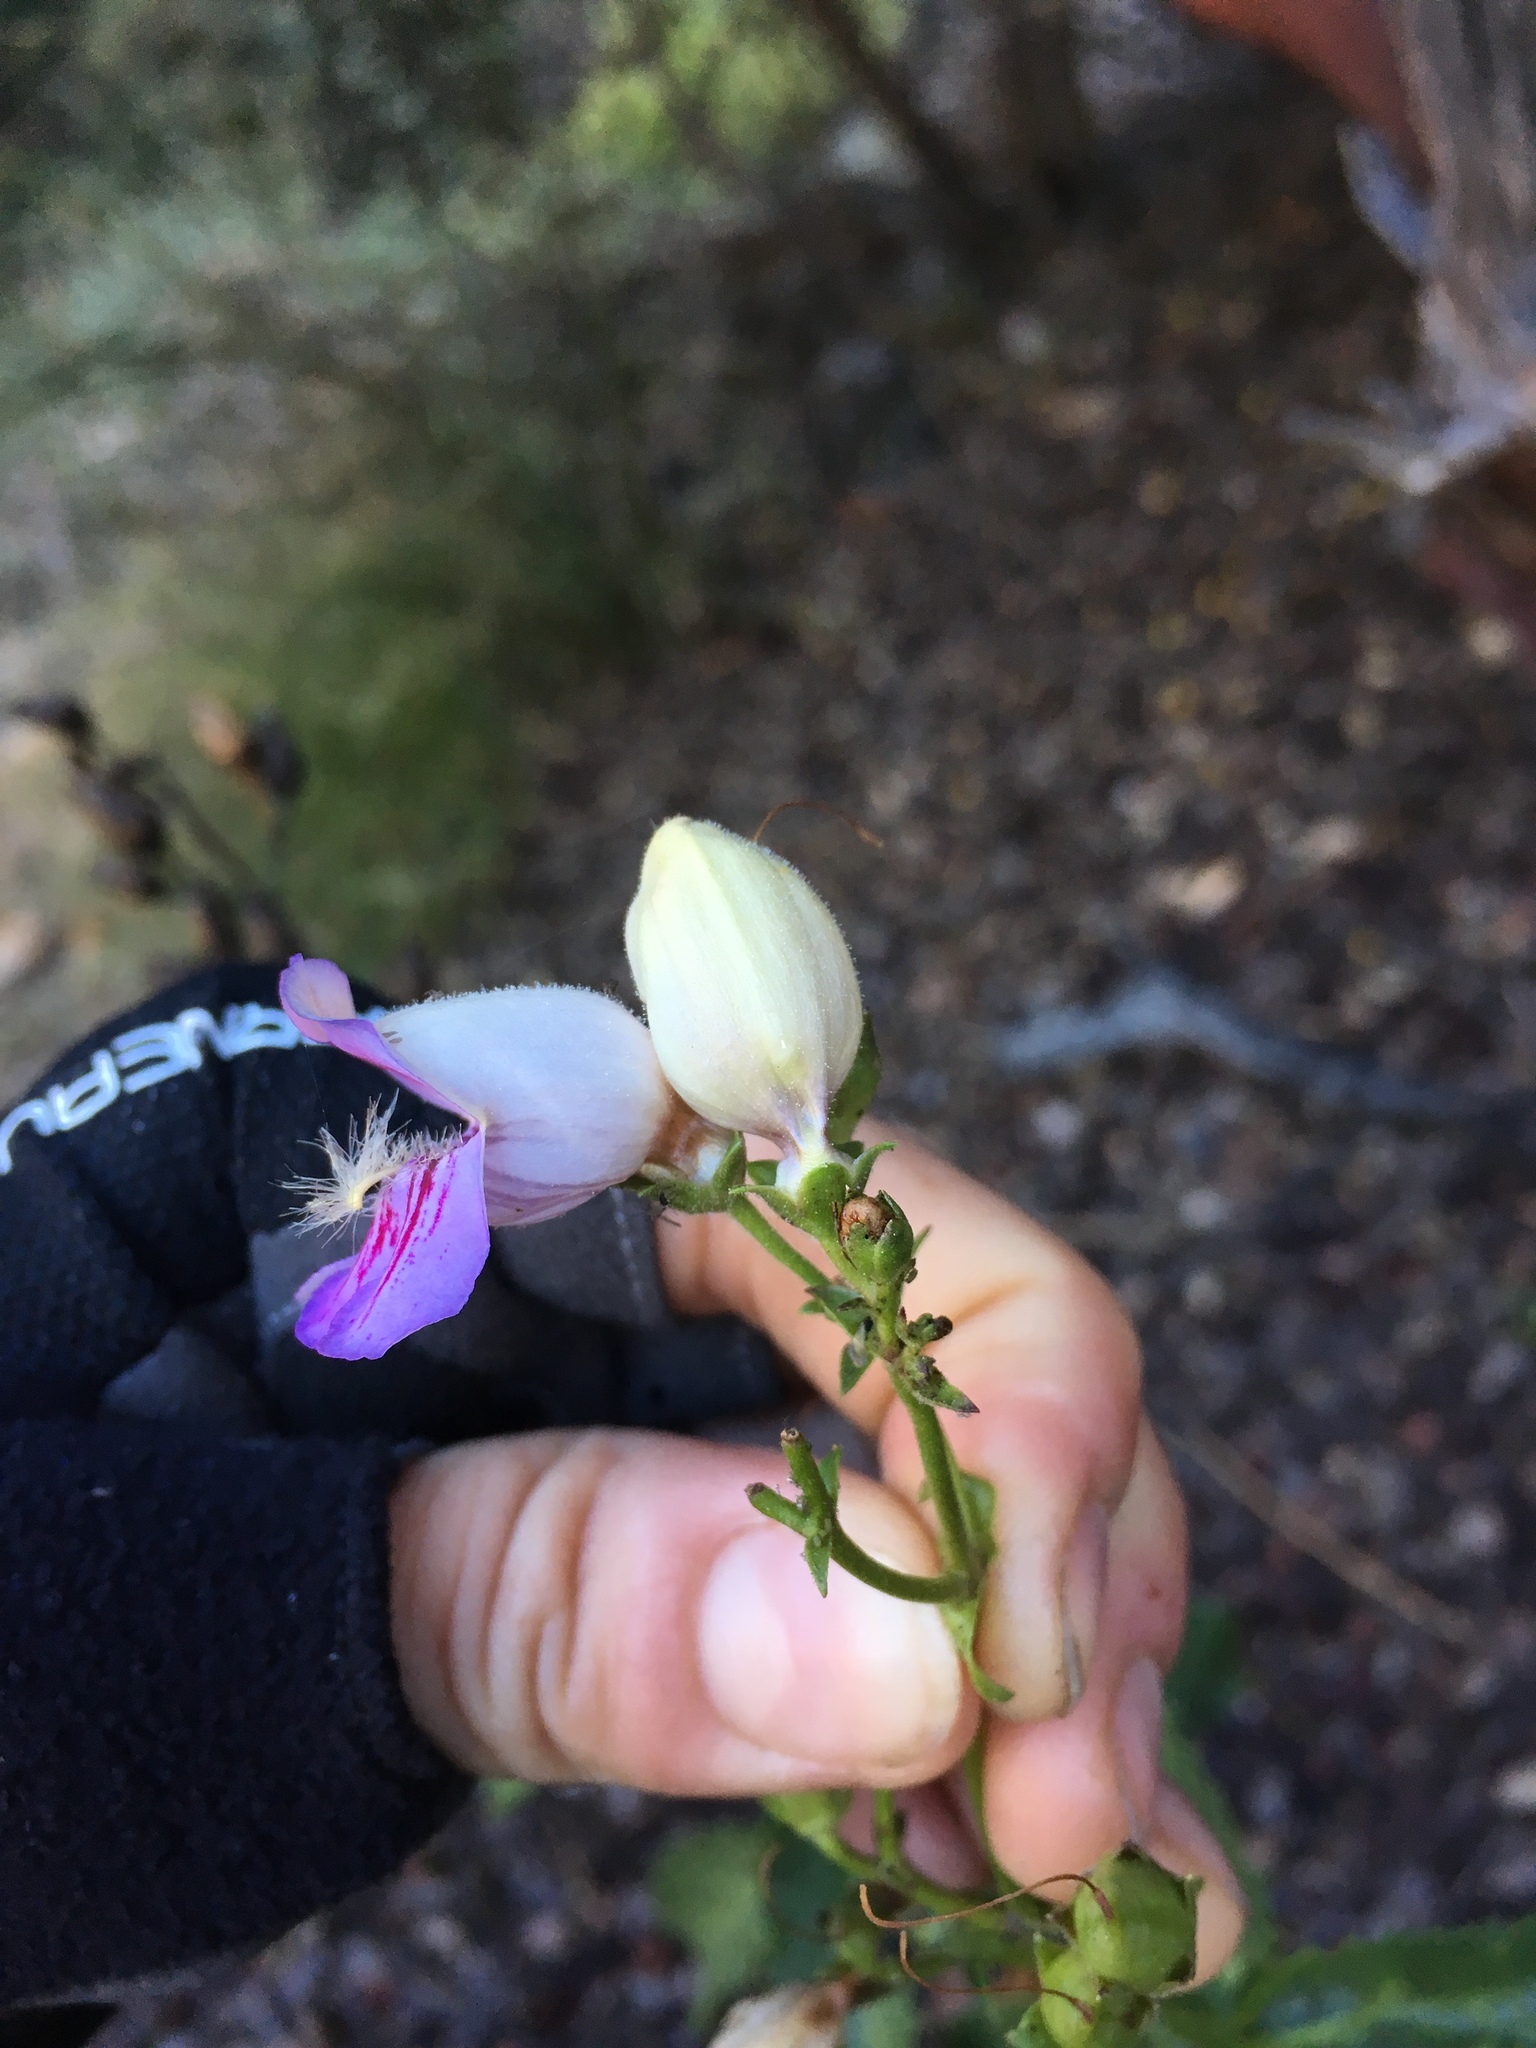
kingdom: Plantae
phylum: Tracheophyta
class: Magnoliopsida
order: Lamiales
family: Plantaginaceae
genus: Penstemon
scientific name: Penstemon grinnellii
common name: Grinnell's beardtongue
